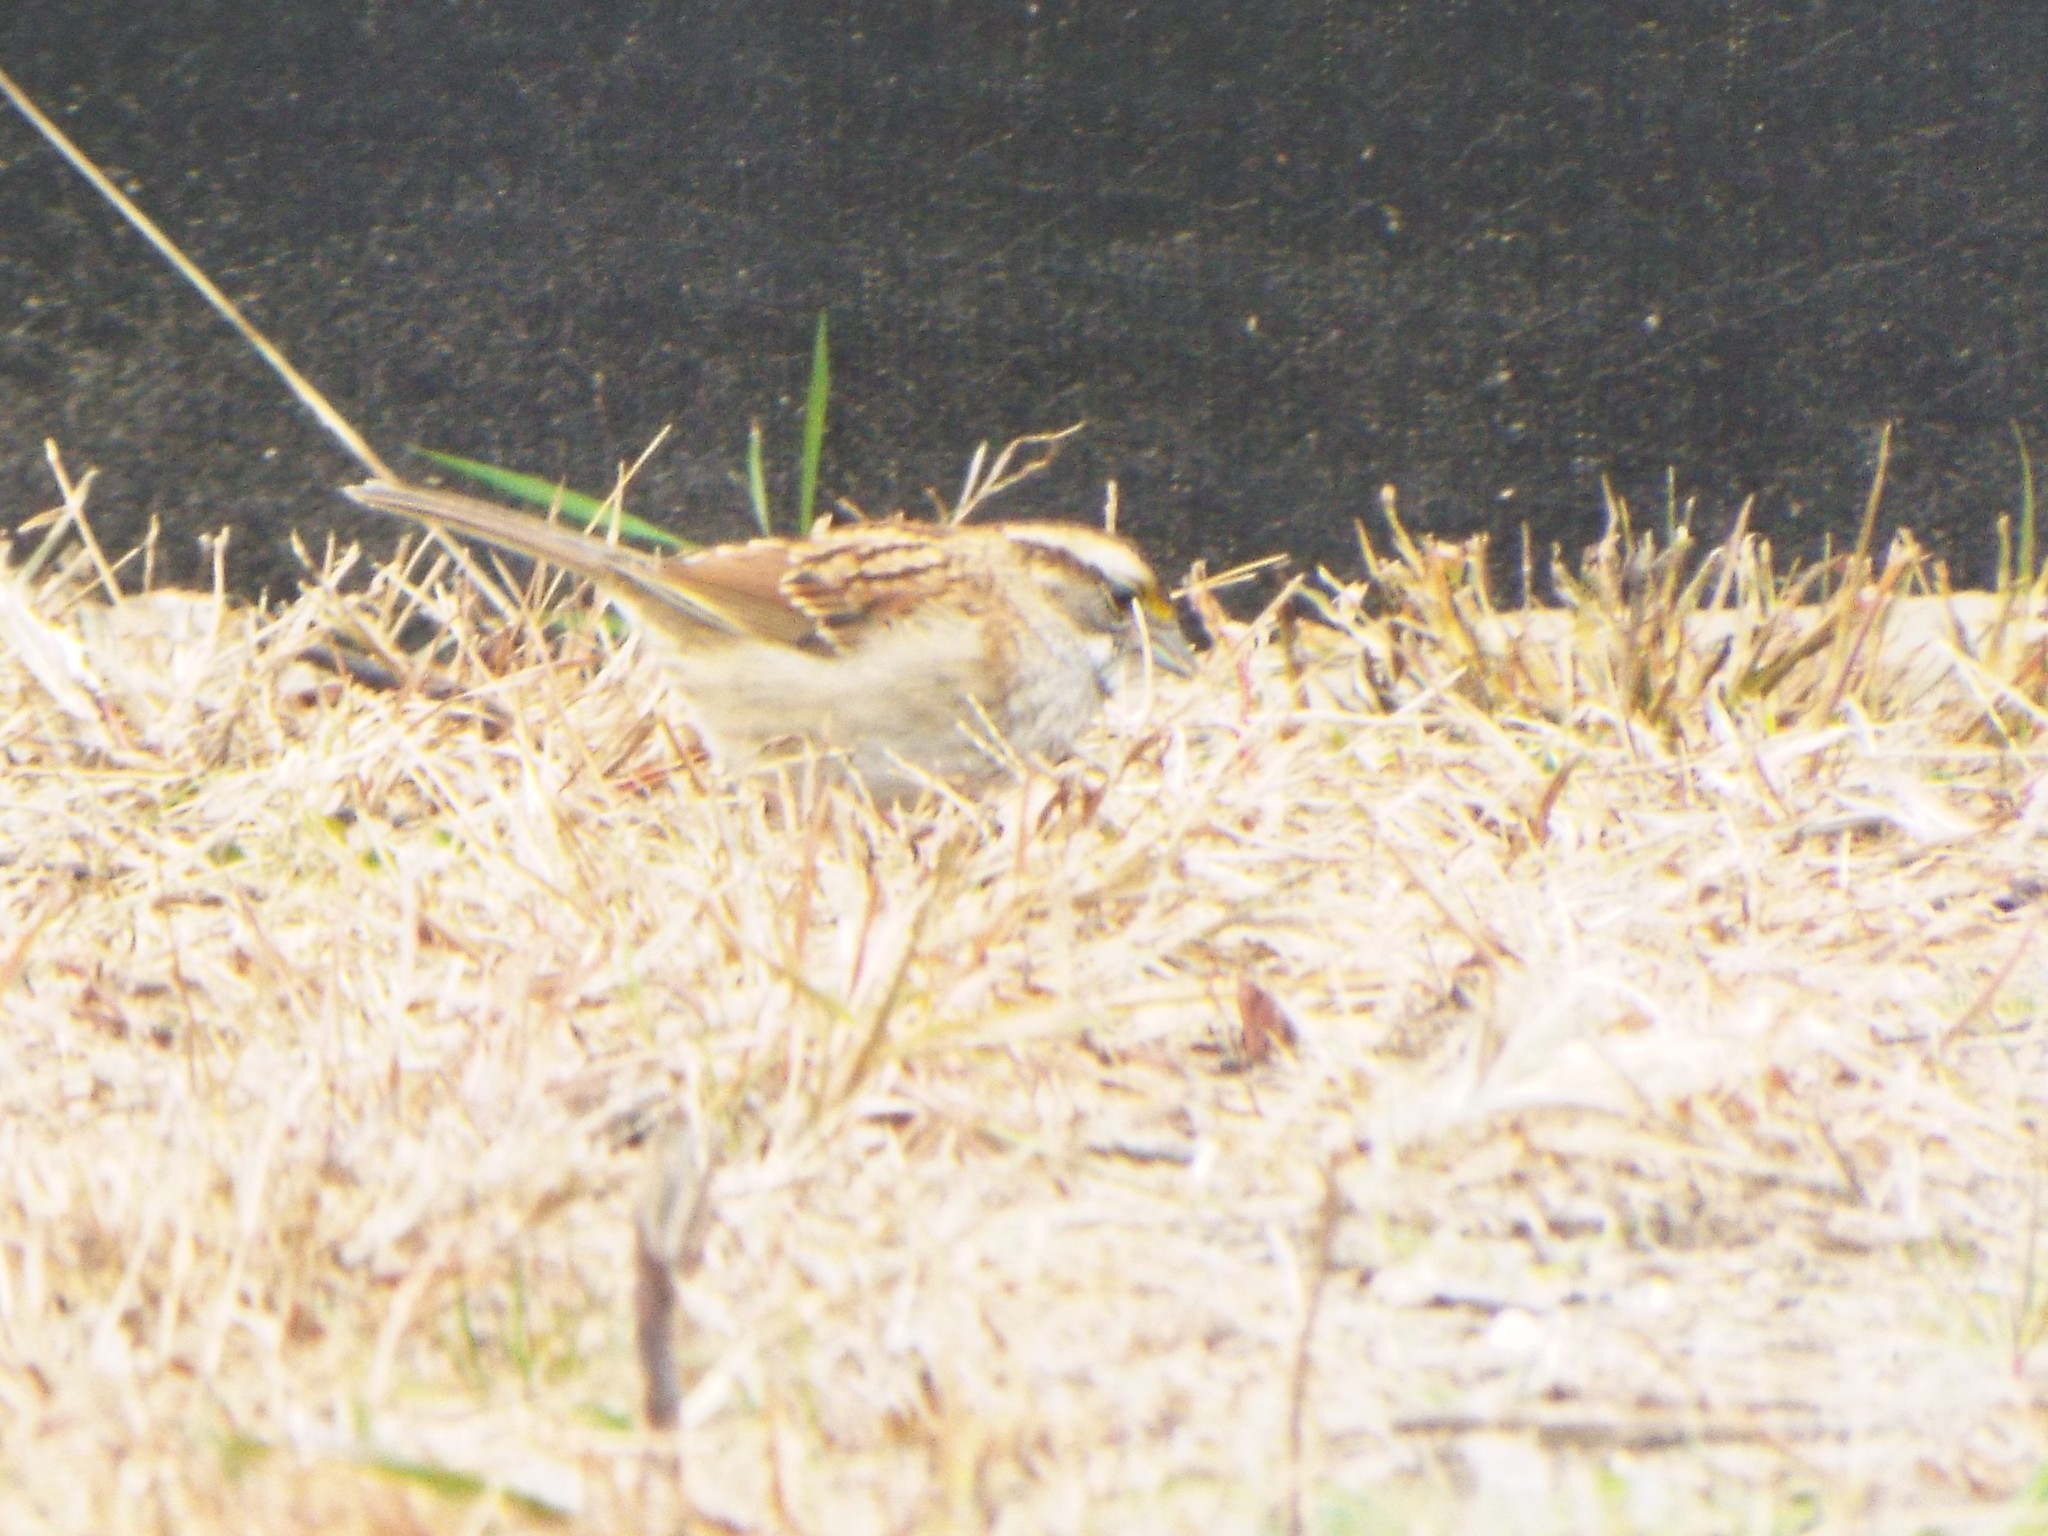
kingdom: Animalia
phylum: Chordata
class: Aves
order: Passeriformes
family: Passerellidae
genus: Zonotrichia
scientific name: Zonotrichia albicollis
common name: White-throated sparrow
